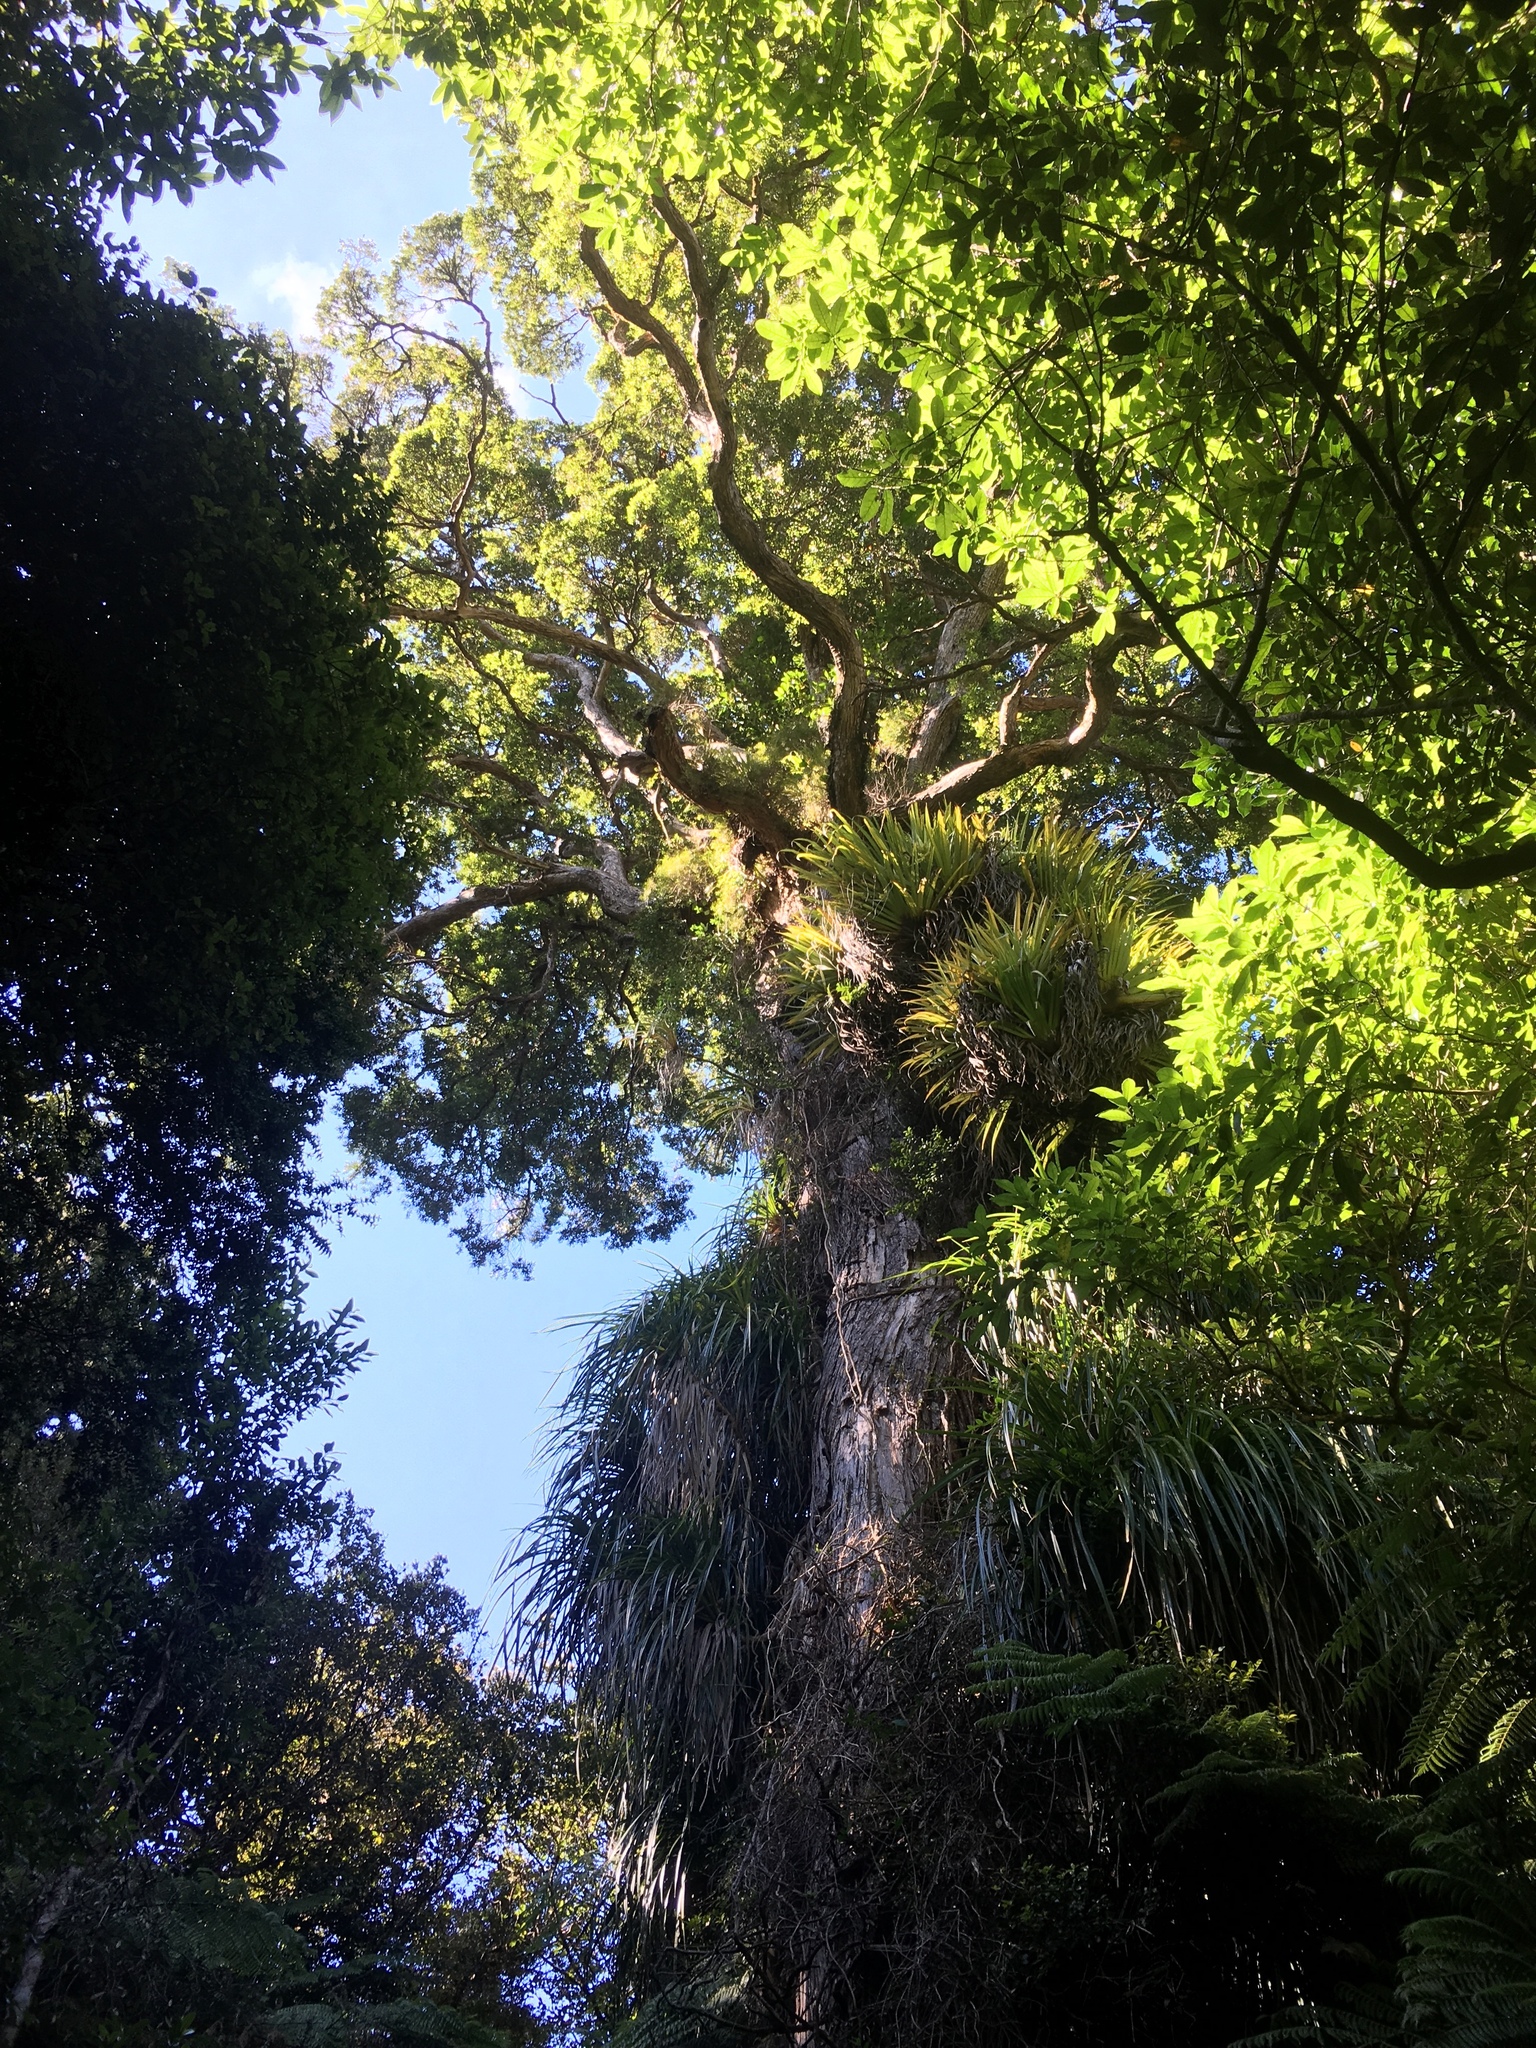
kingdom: Plantae
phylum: Tracheophyta
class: Magnoliopsida
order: Myrtales
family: Myrtaceae
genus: Metrosideros
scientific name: Metrosideros robusta
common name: Northern rata
